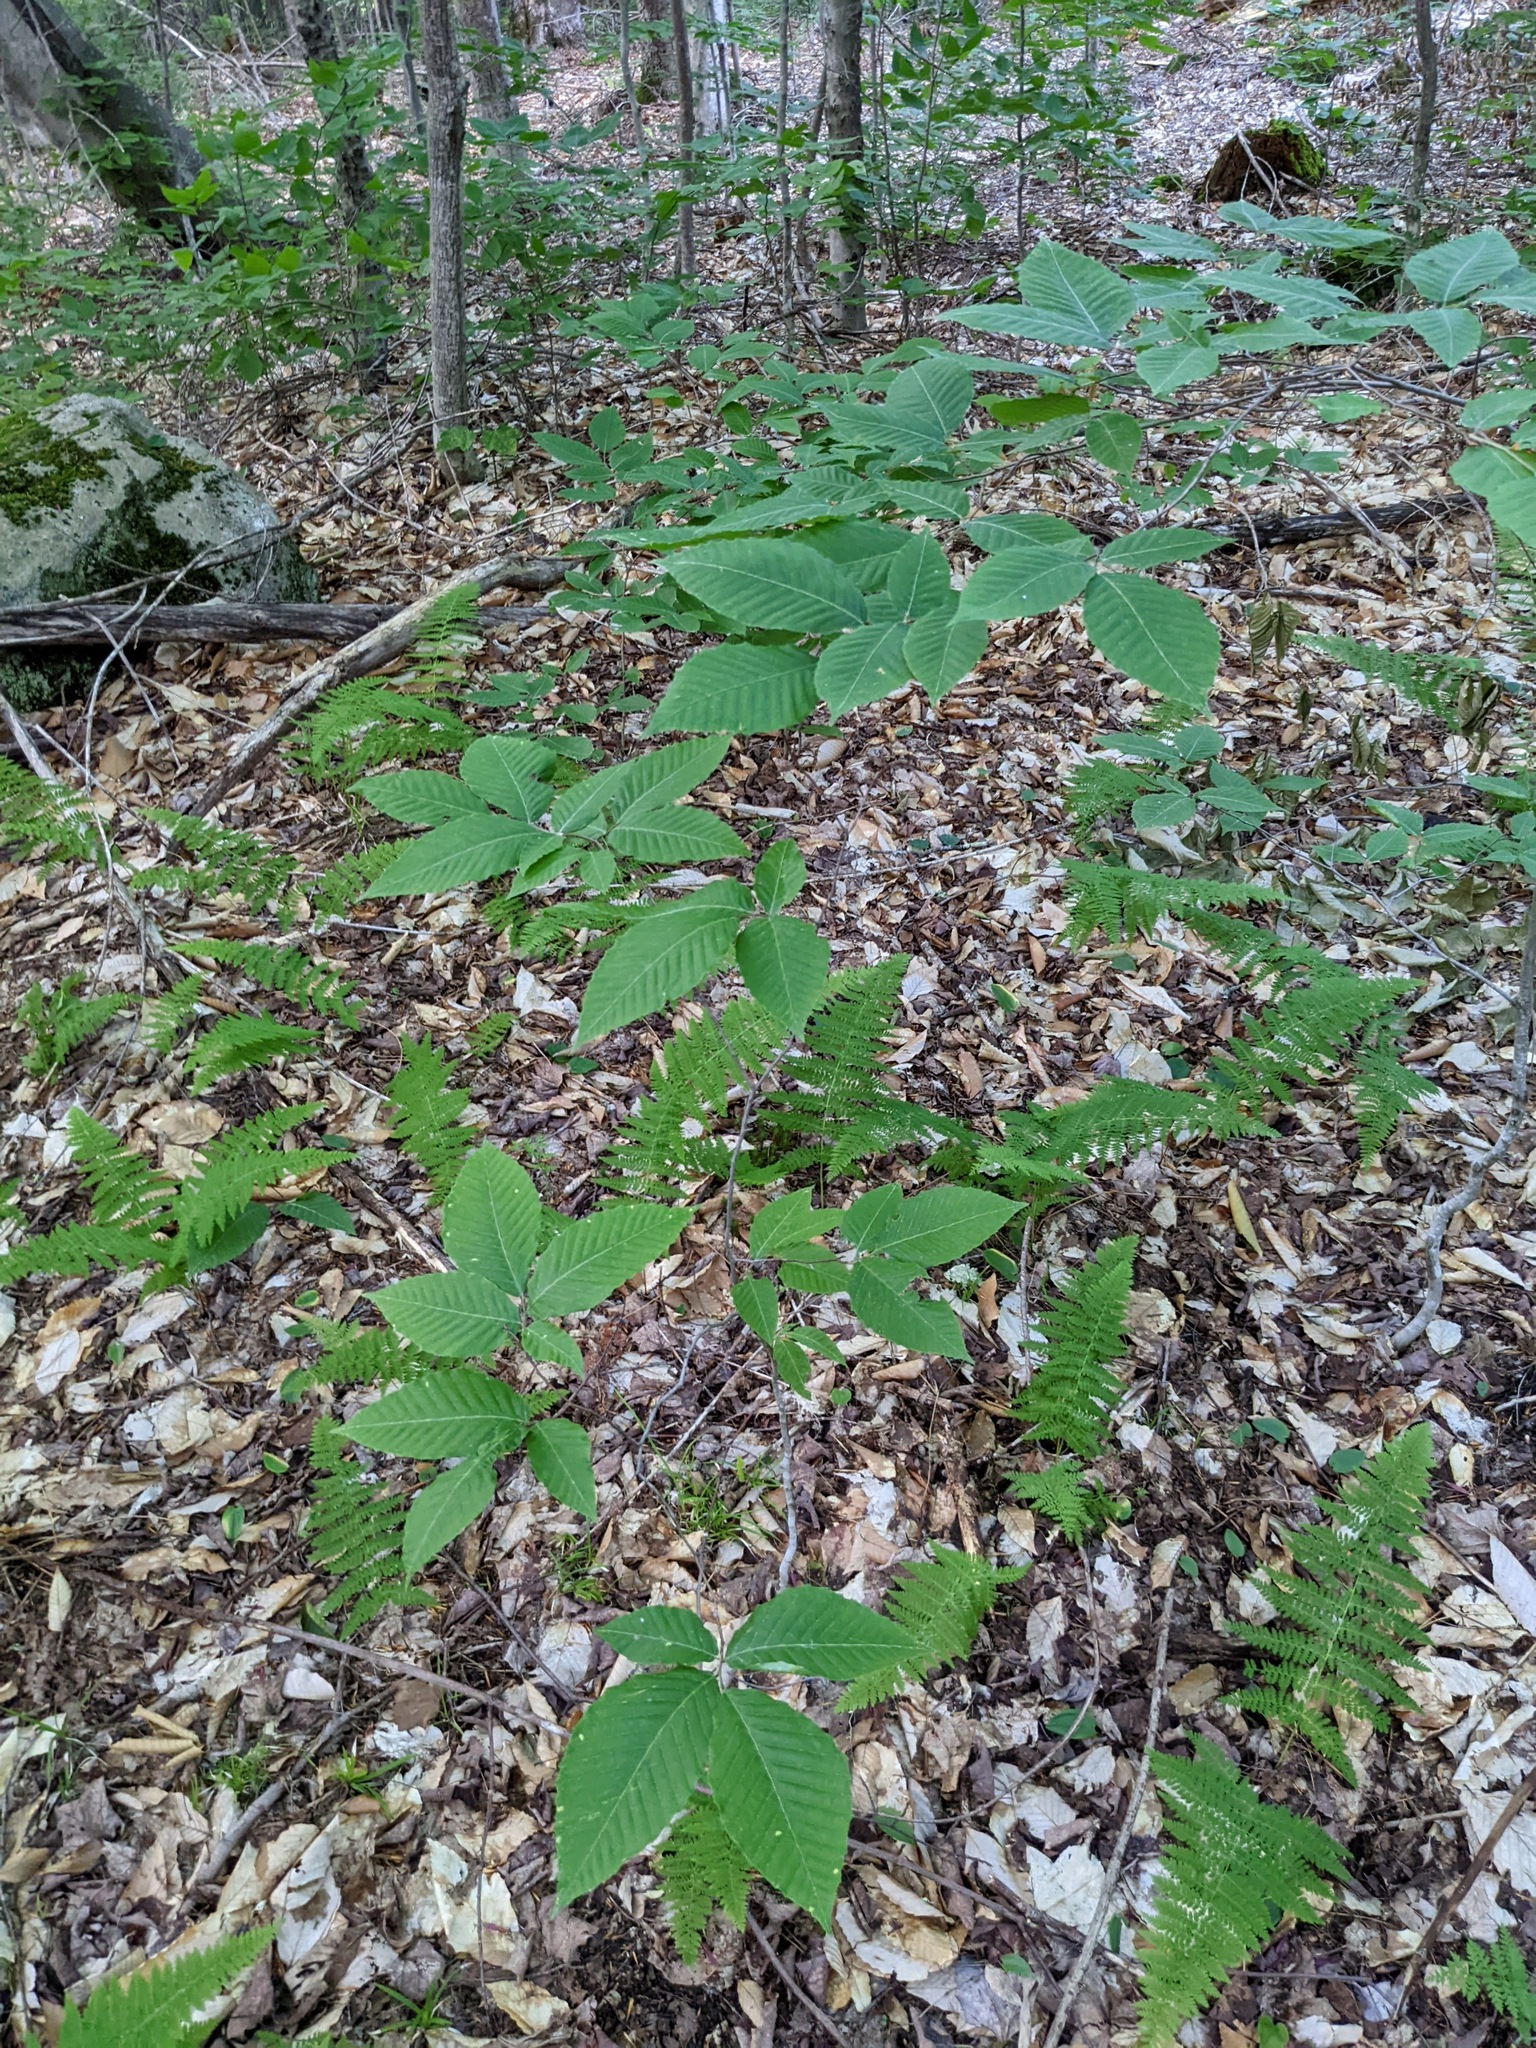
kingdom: Plantae
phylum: Tracheophyta
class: Magnoliopsida
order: Fagales
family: Fagaceae
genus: Fagus
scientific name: Fagus grandifolia
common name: American beech
